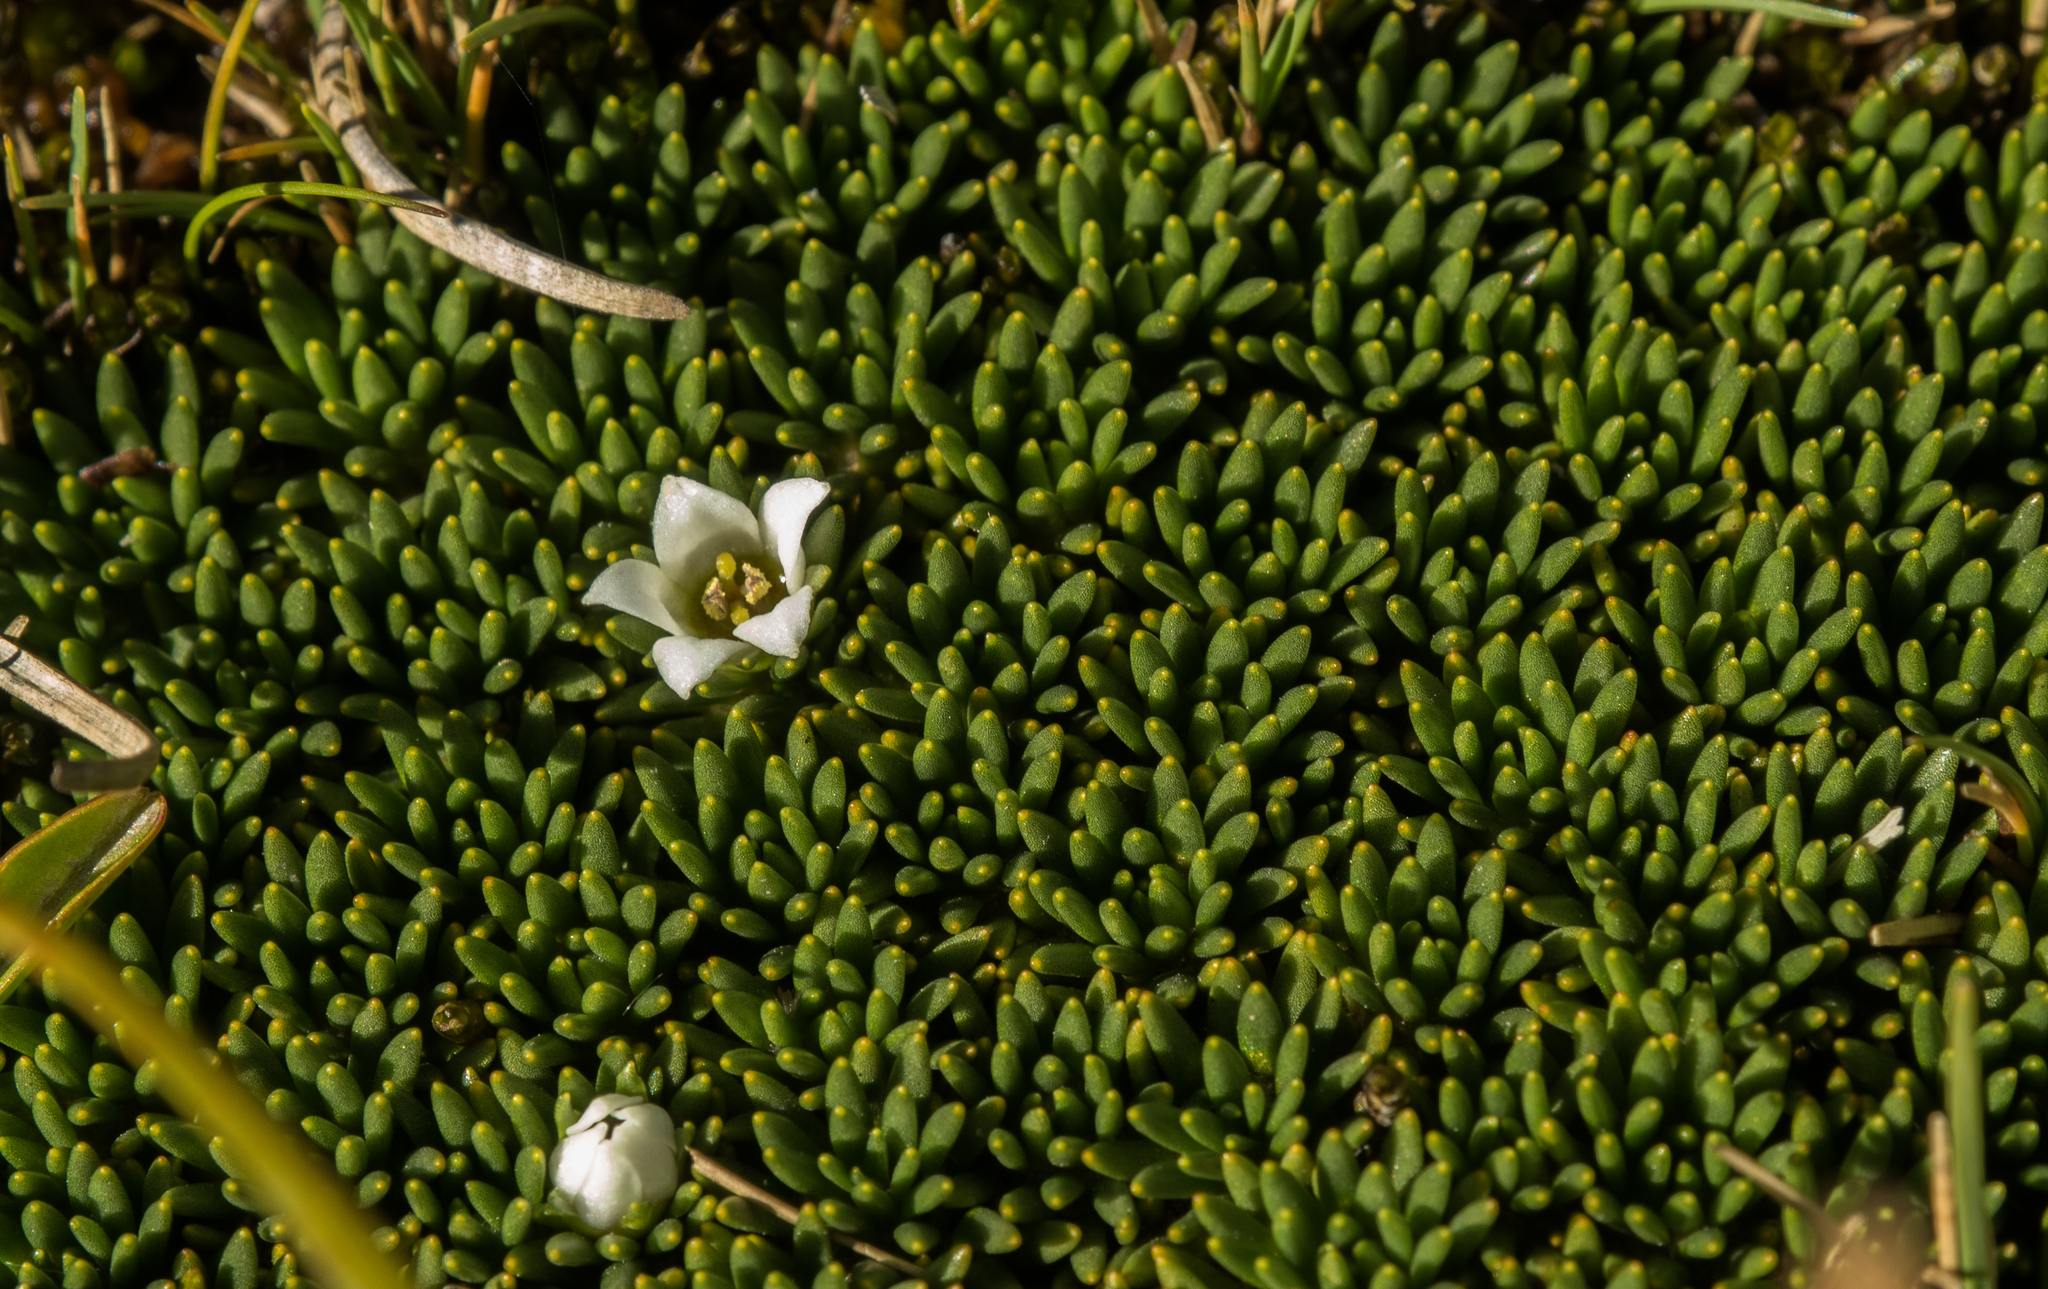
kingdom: Plantae
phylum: Tracheophyta
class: Magnoliopsida
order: Asterales
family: Stylidiaceae
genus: Donatia
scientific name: Donatia novae-zelandiae
